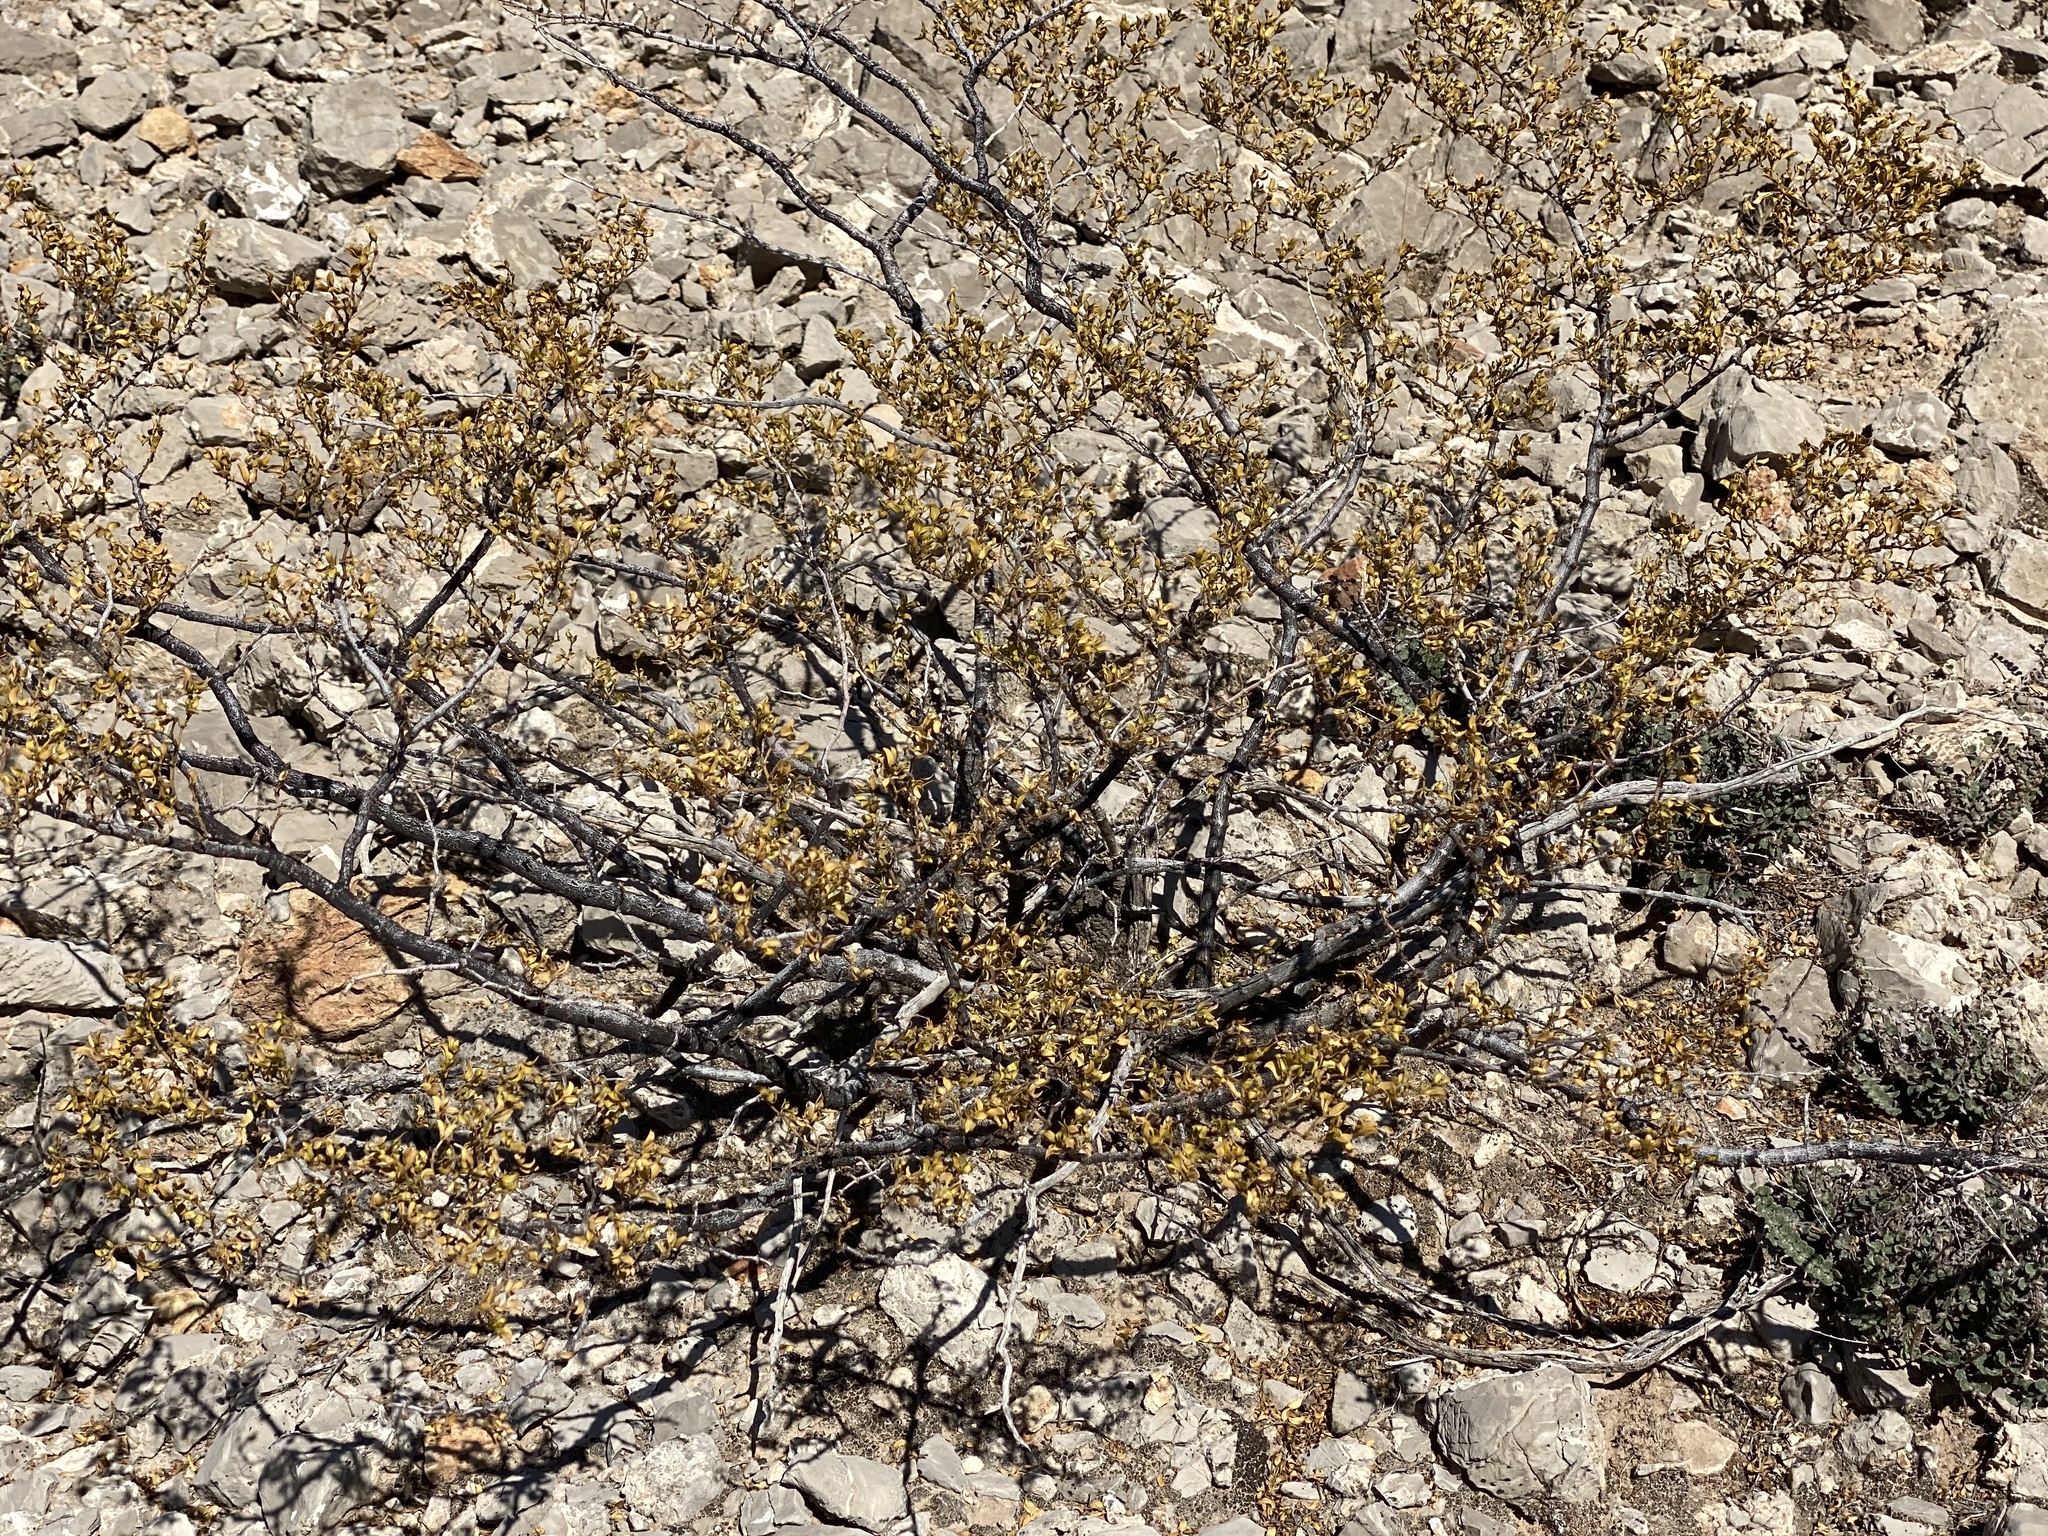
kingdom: Plantae
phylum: Tracheophyta
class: Magnoliopsida
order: Zygophyllales
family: Zygophyllaceae
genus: Larrea
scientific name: Larrea tridentata
